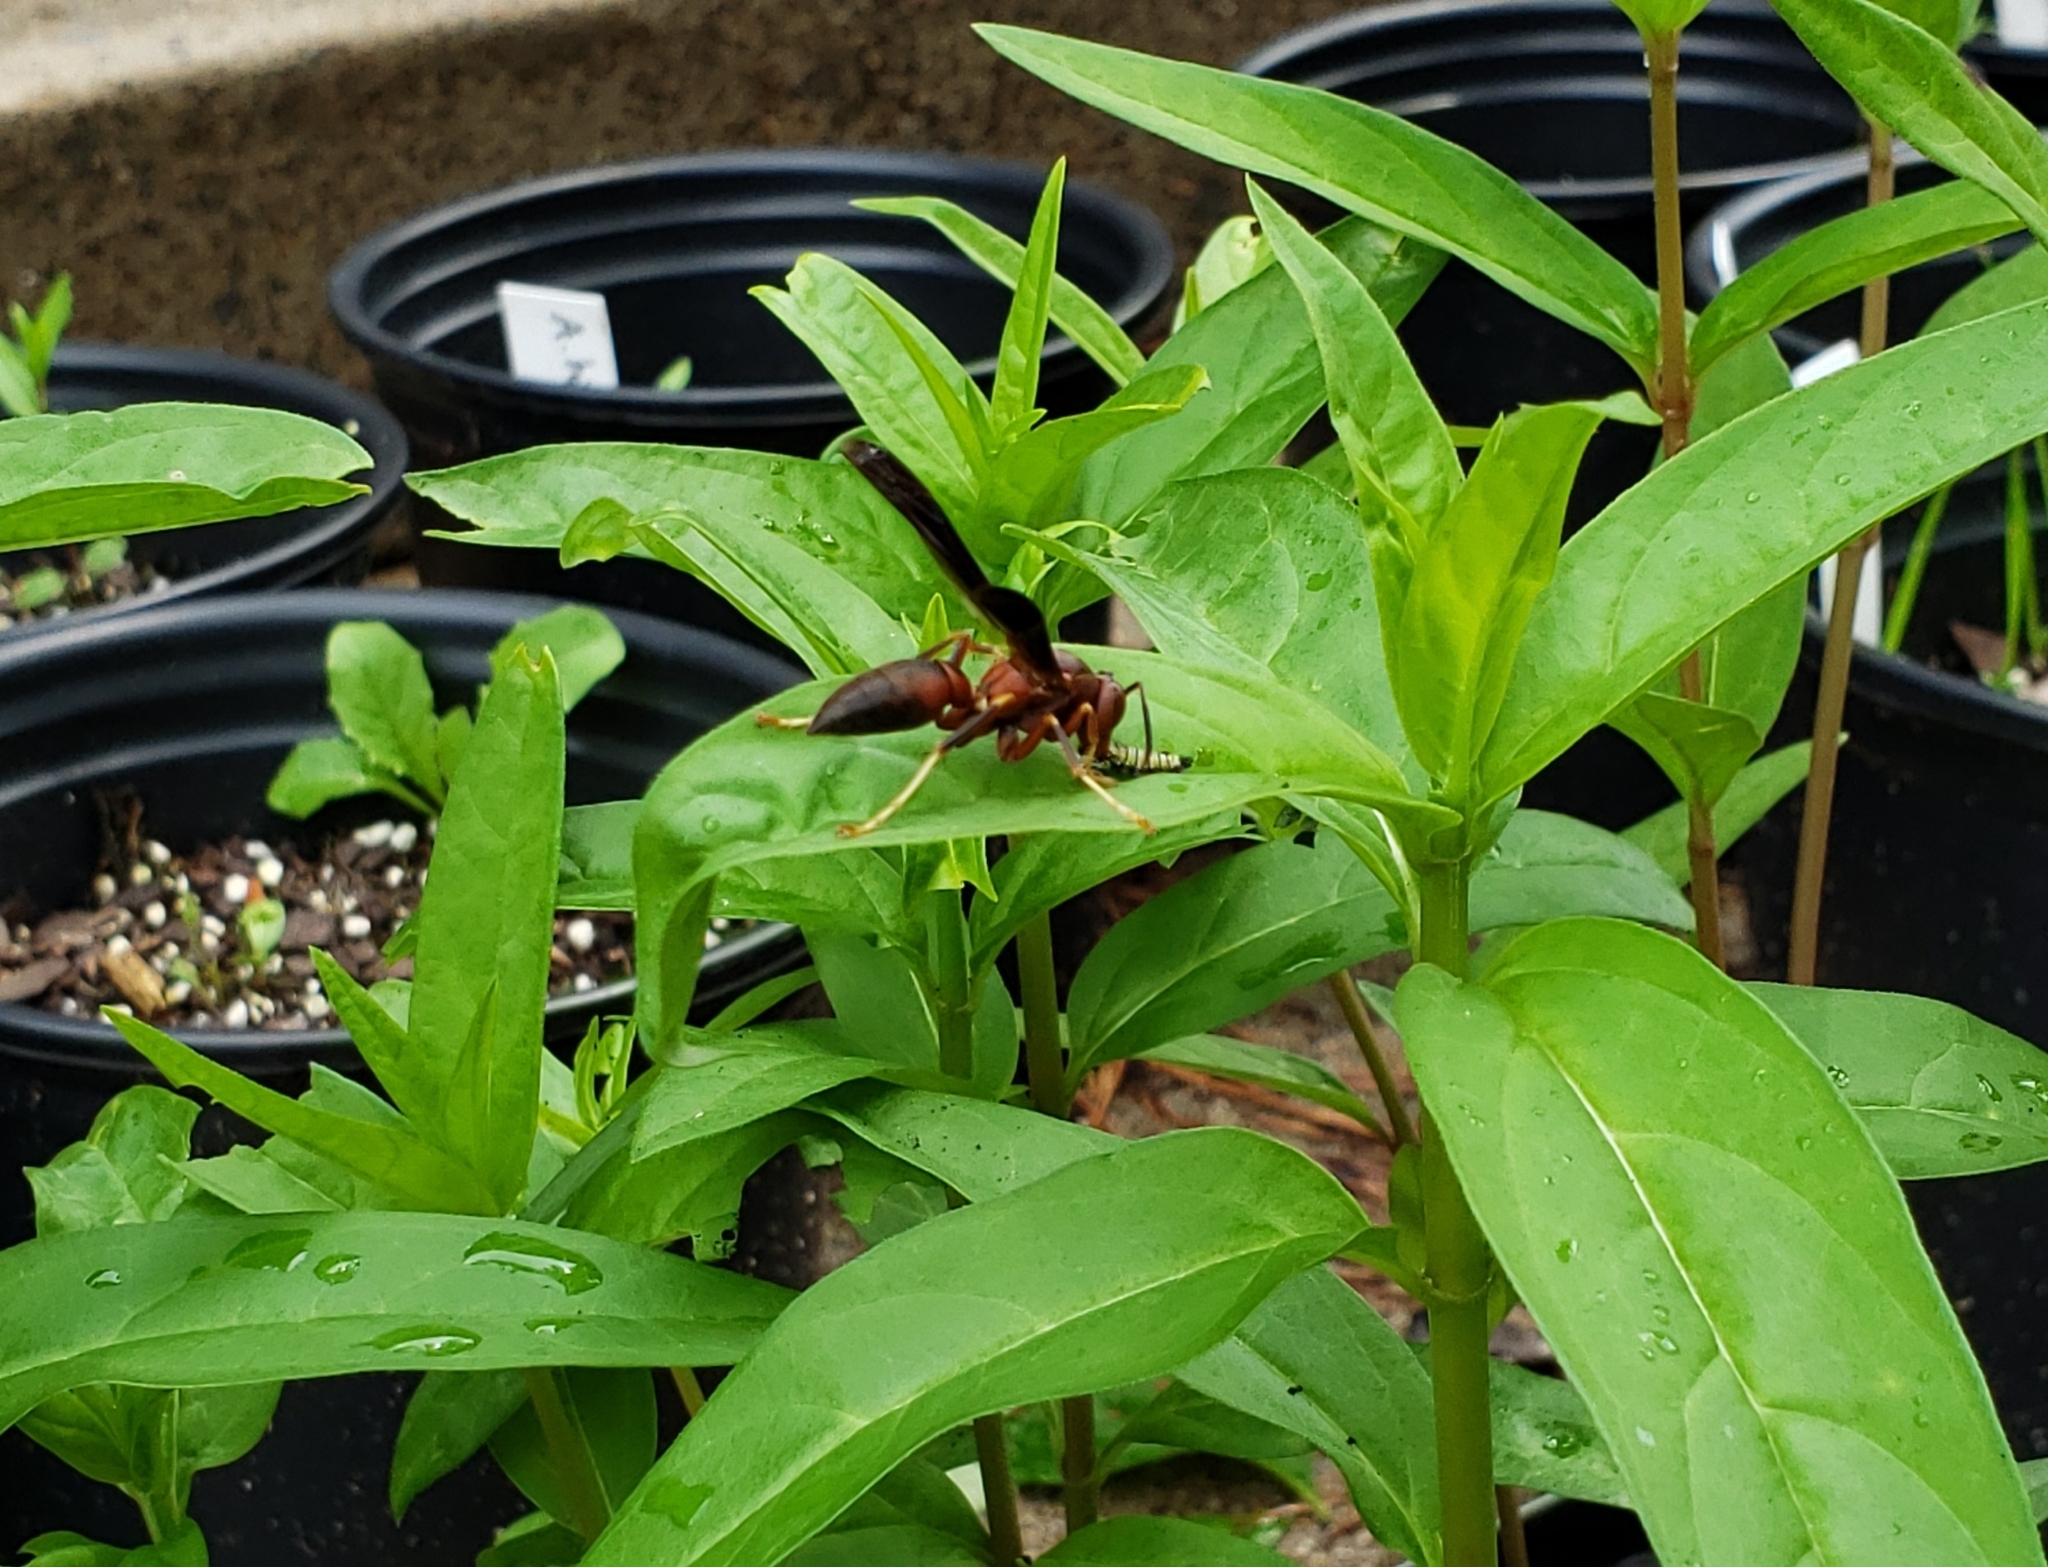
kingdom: Animalia
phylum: Arthropoda
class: Insecta
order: Lepidoptera
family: Nymphalidae
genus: Danaus
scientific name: Danaus plexippus
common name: Monarch
